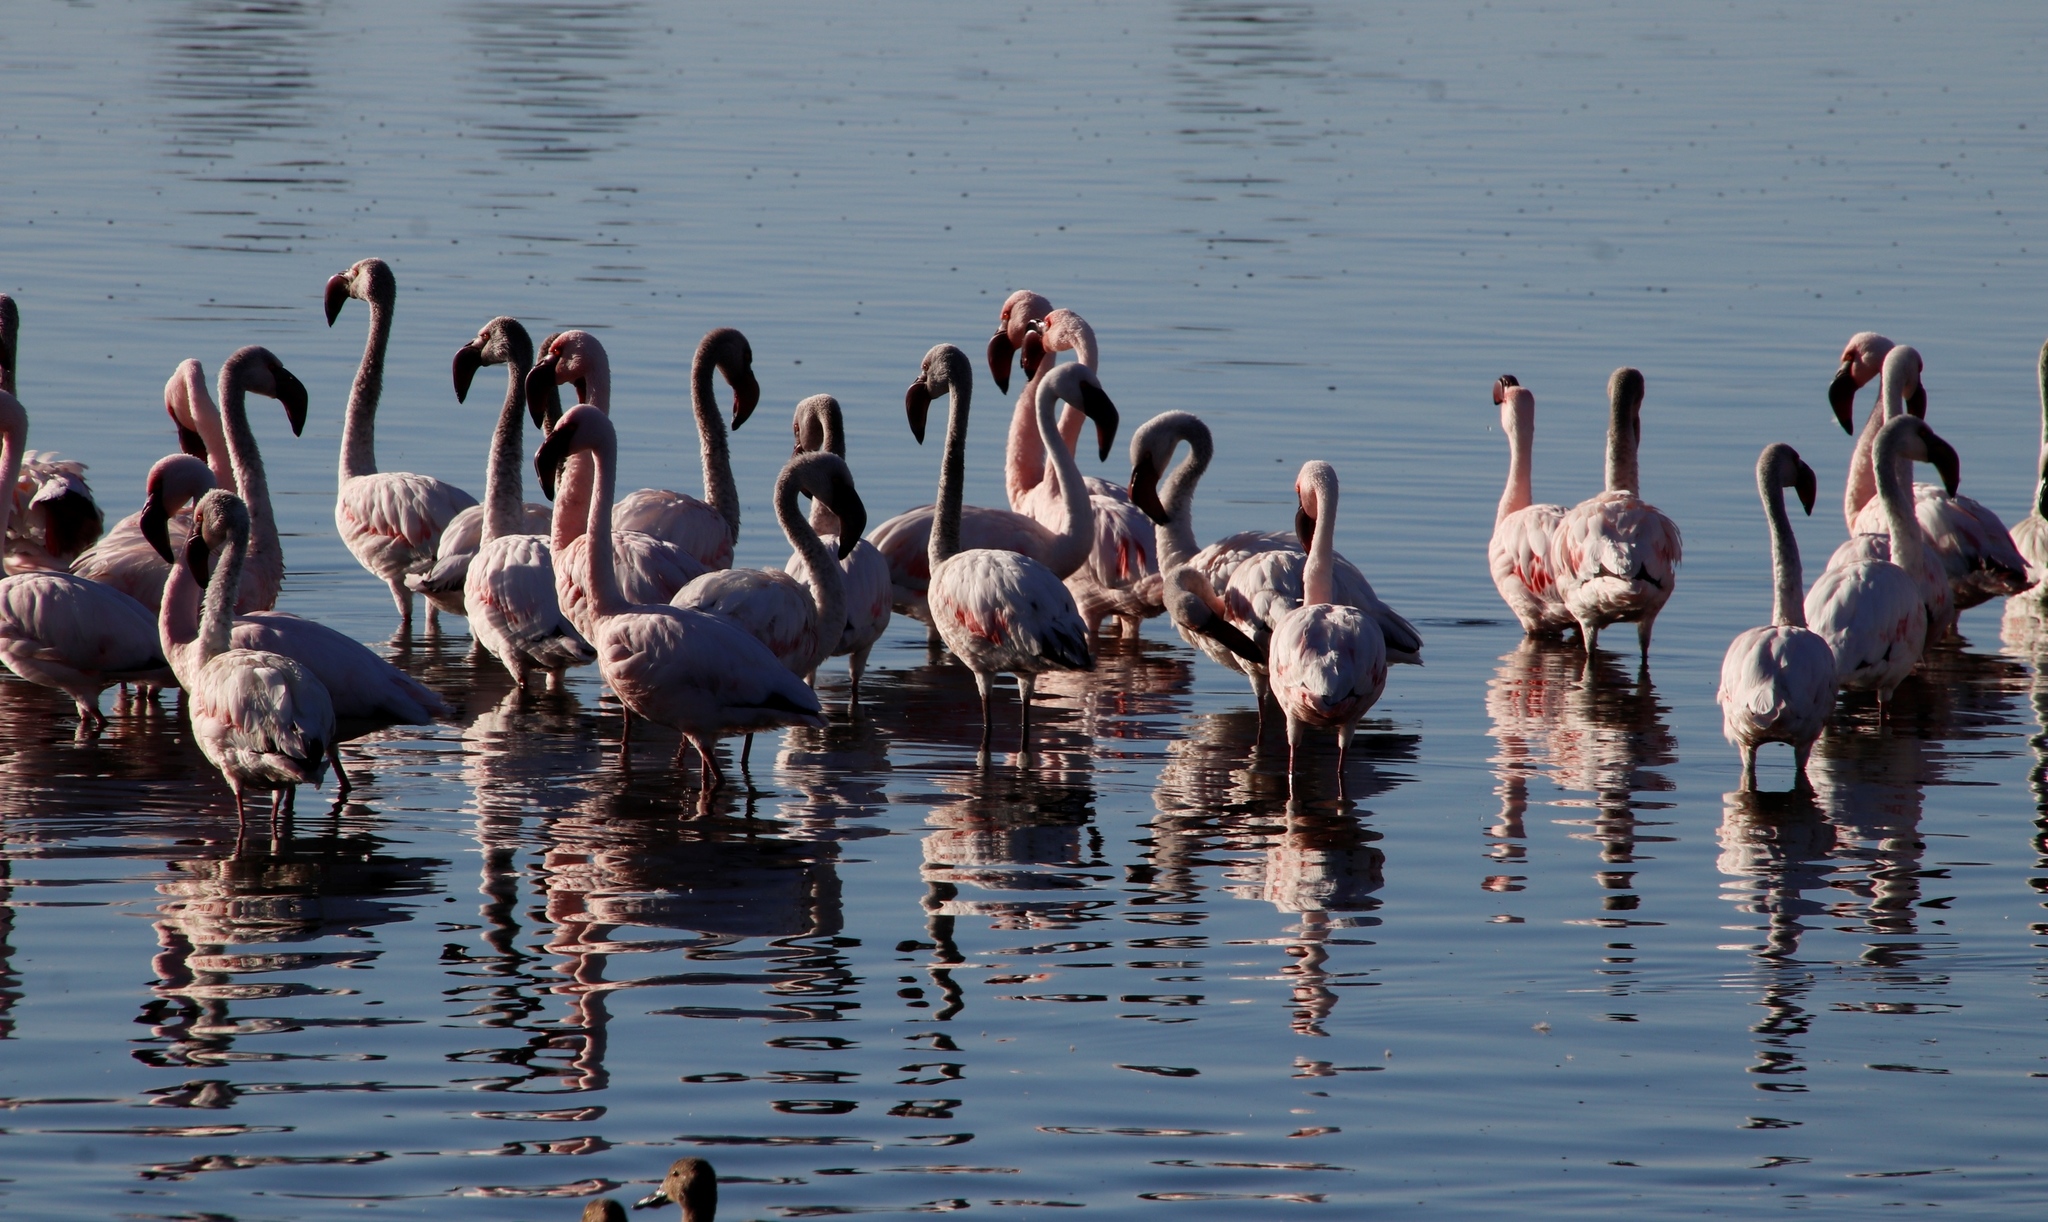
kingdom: Animalia
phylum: Chordata
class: Aves
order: Phoenicopteriformes
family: Phoenicopteridae
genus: Phoeniconaias
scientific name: Phoeniconaias minor
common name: Lesser flamingo
